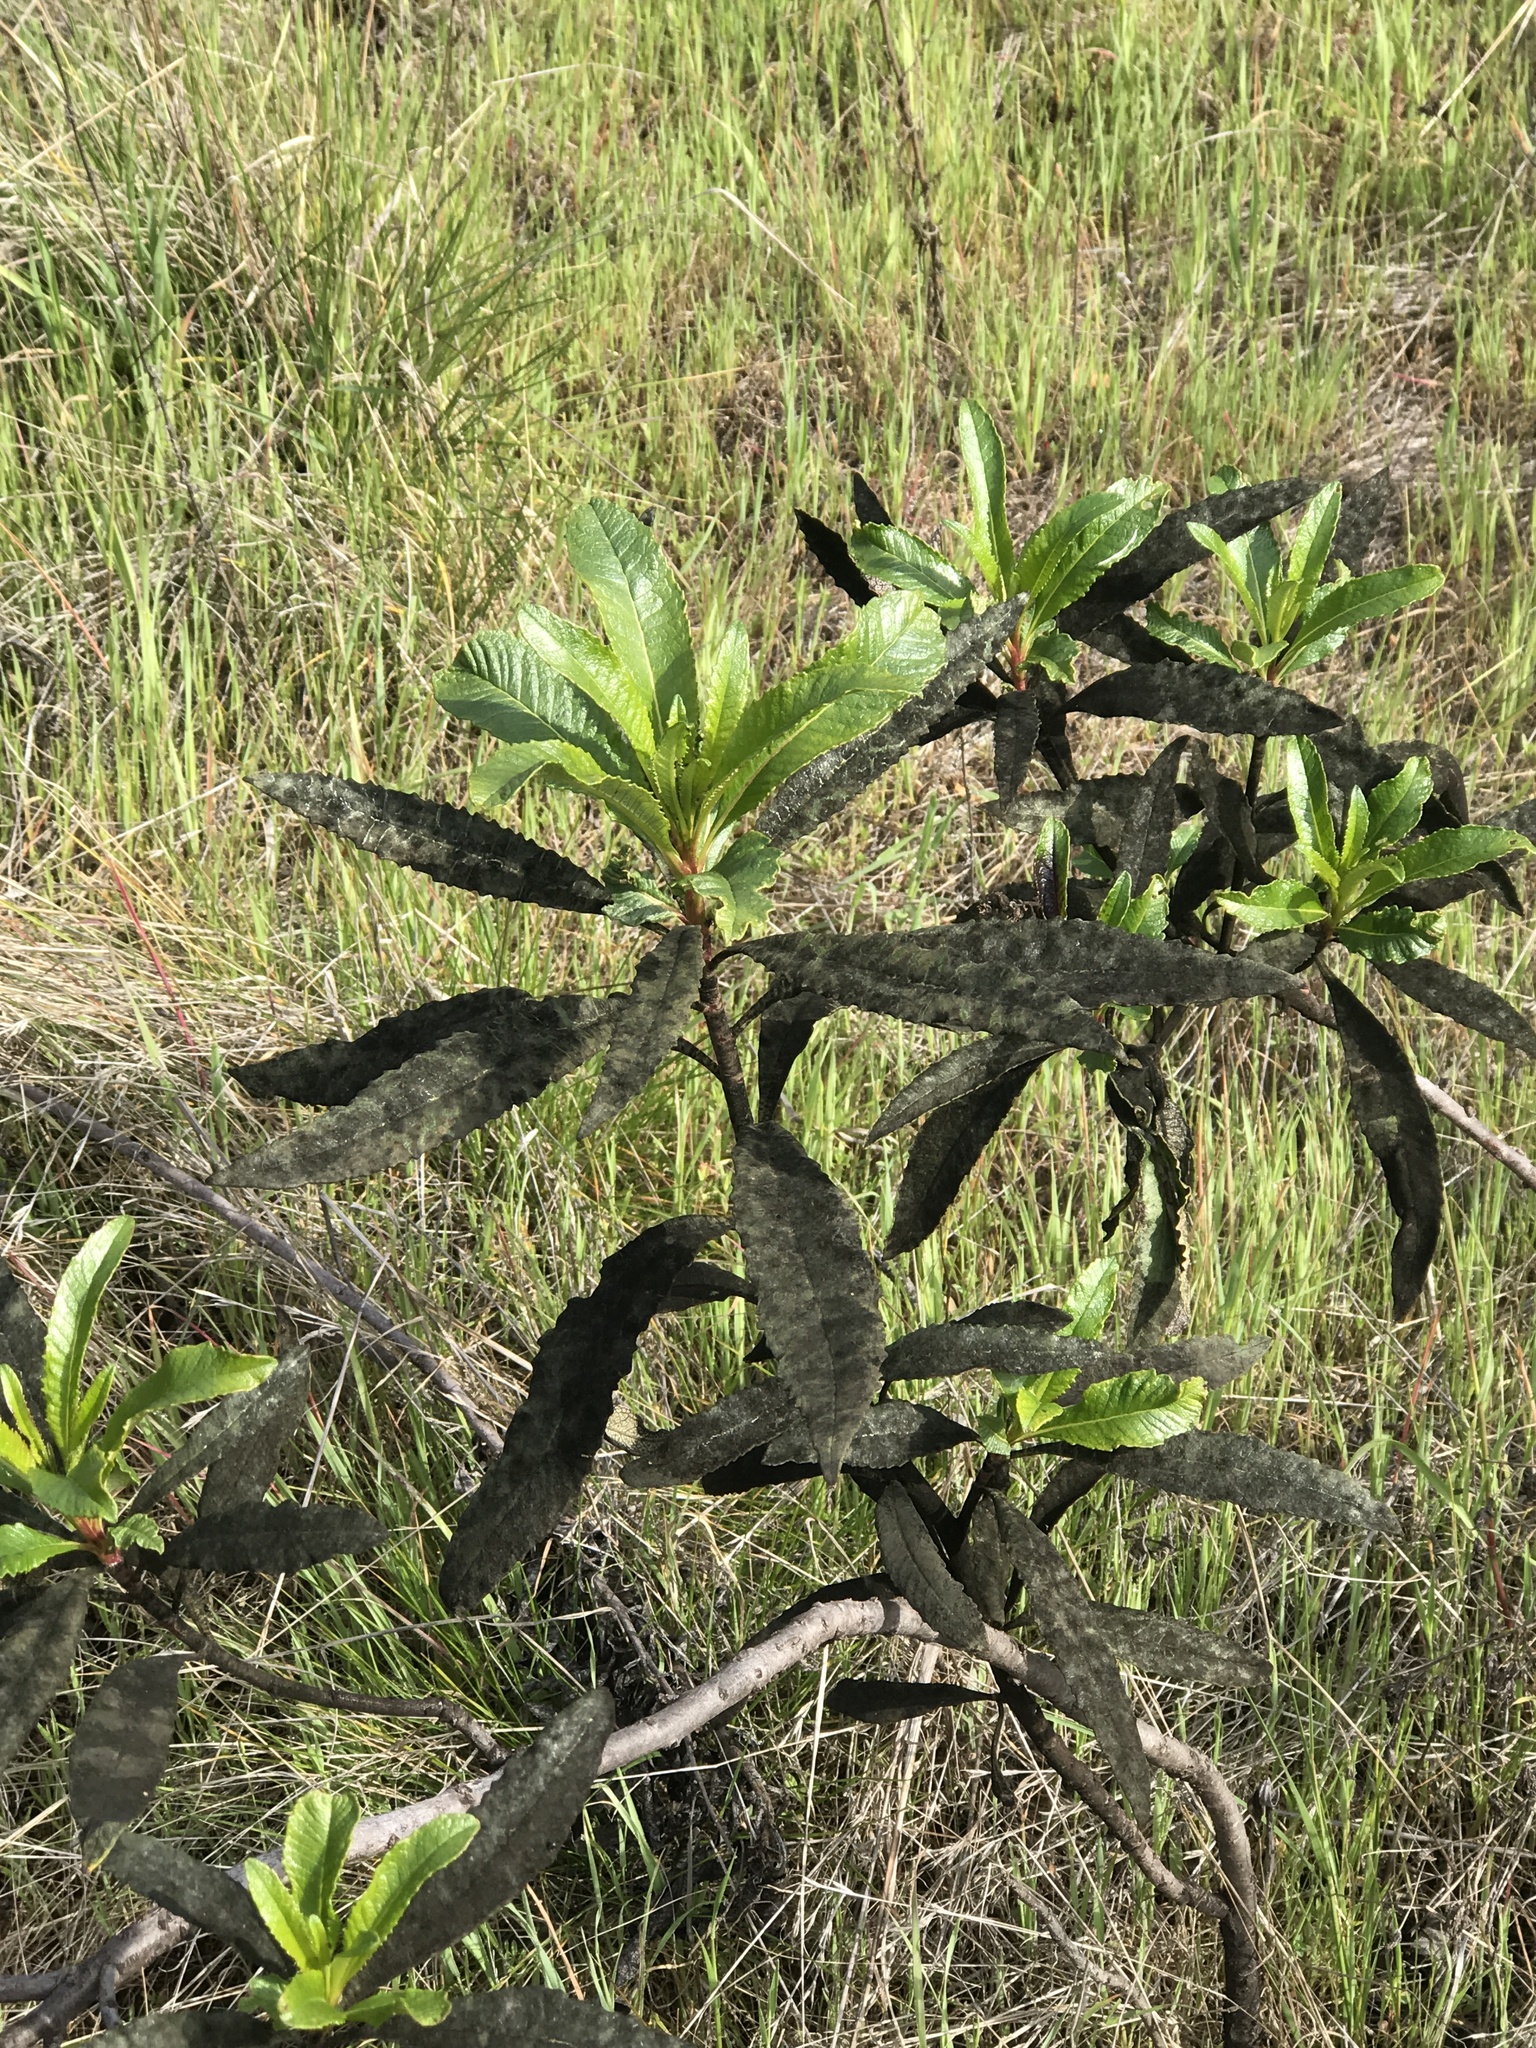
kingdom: Plantae
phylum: Tracheophyta
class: Magnoliopsida
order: Boraginales
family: Namaceae
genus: Eriodictyon
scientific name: Eriodictyon californicum
